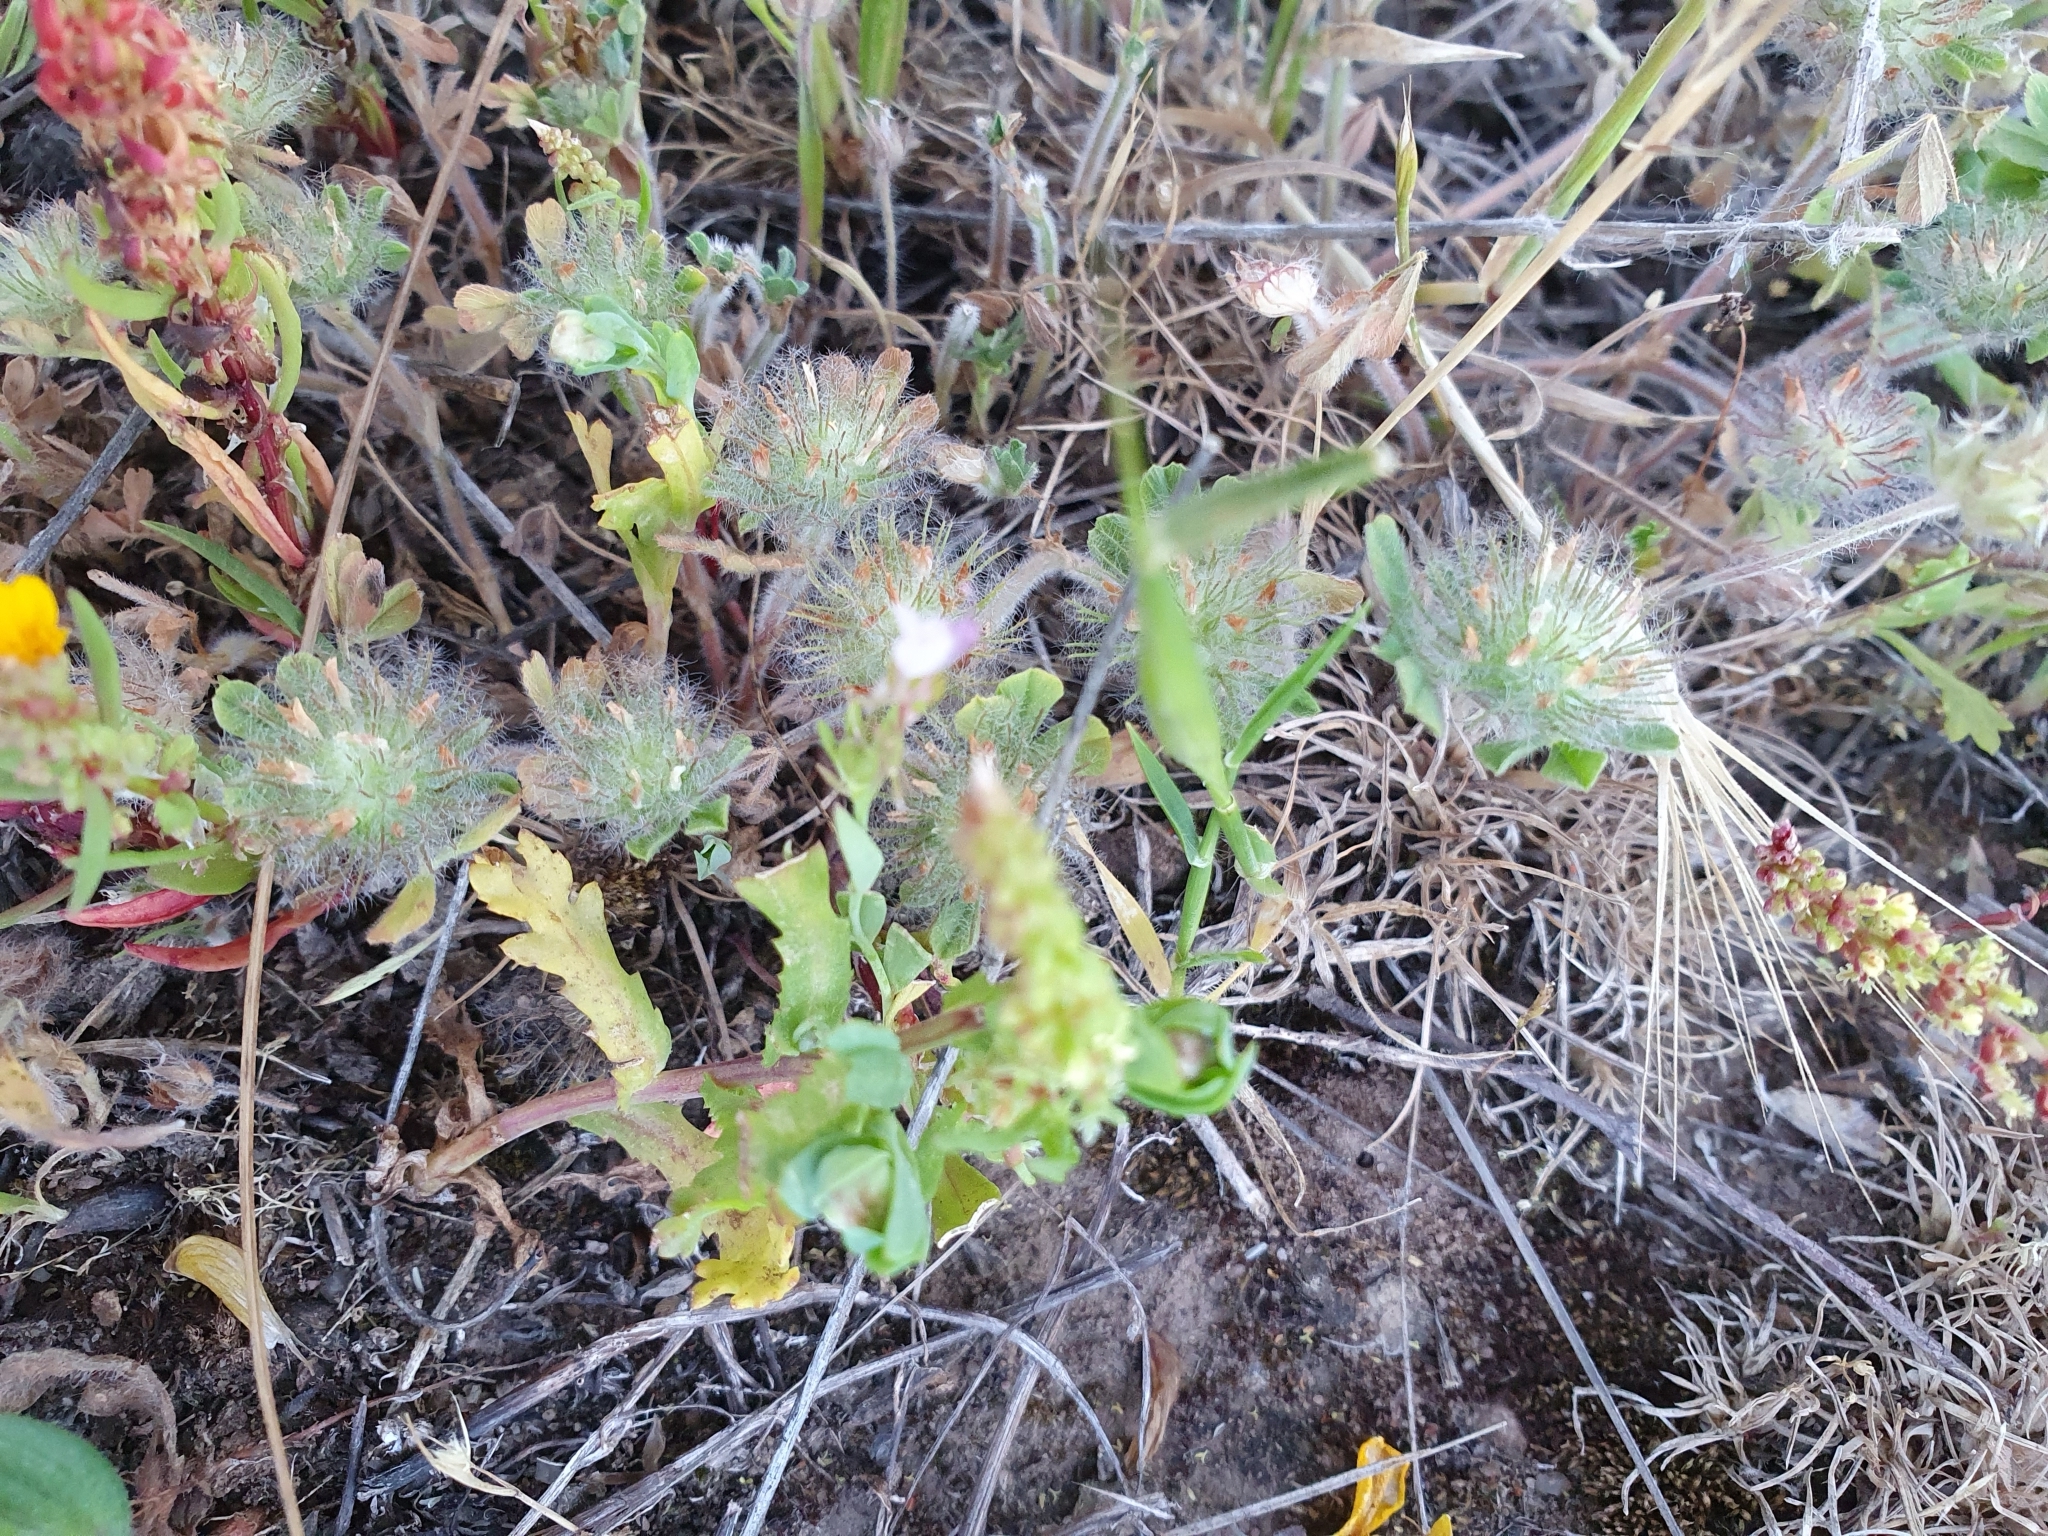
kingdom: Plantae
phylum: Tracheophyta
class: Magnoliopsida
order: Fabales
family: Fabaceae
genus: Trifolium
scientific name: Trifolium cherleri
